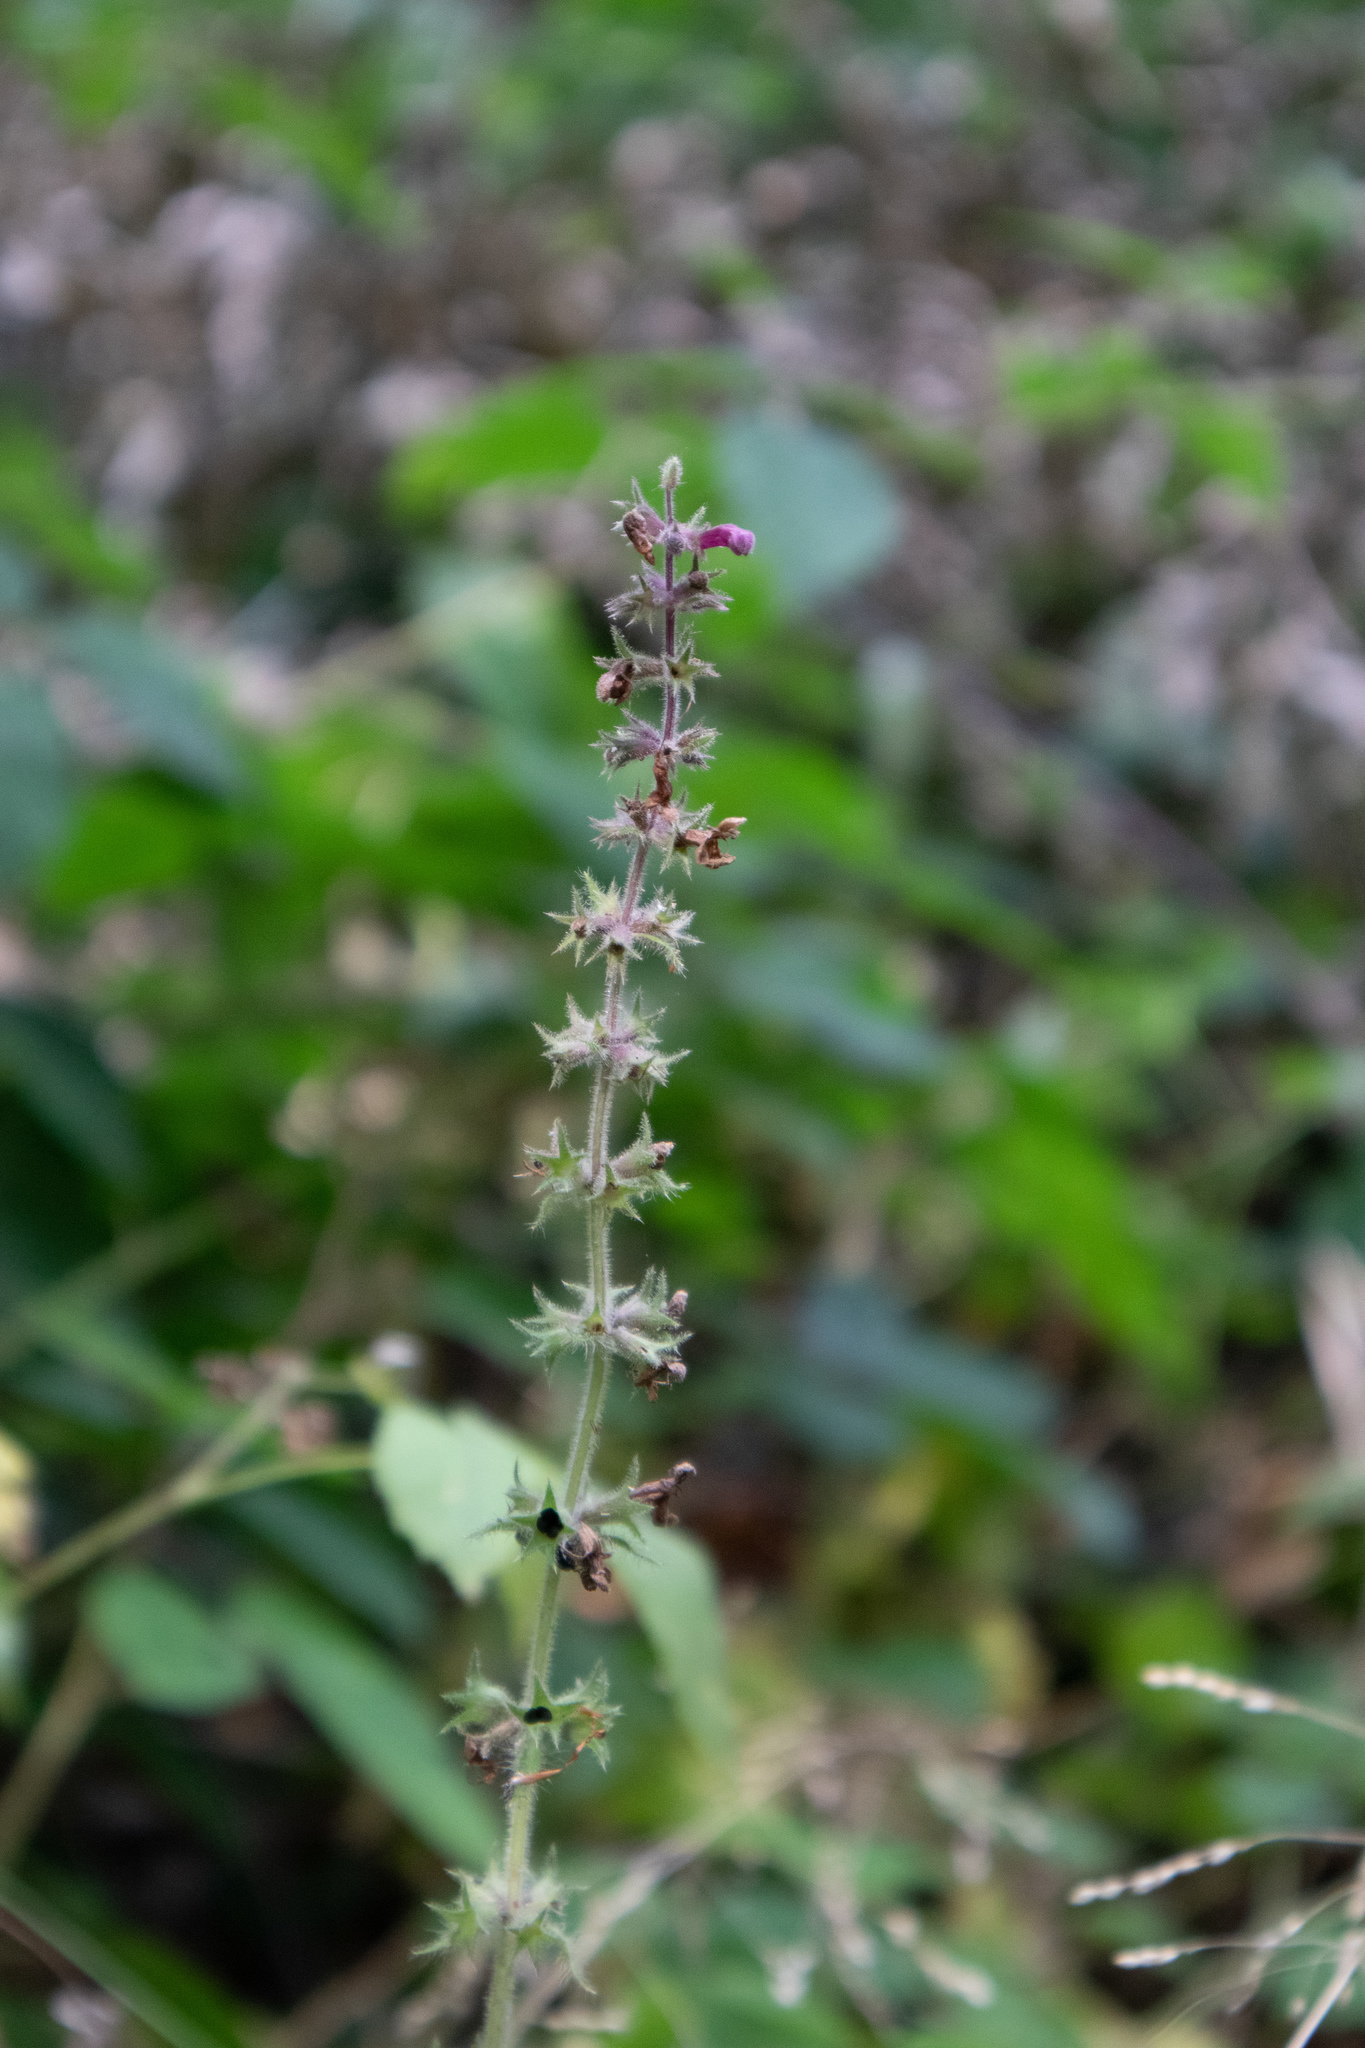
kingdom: Plantae
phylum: Tracheophyta
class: Magnoliopsida
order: Lamiales
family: Lamiaceae
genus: Stachys
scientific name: Stachys sylvatica
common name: Hedge woundwort
